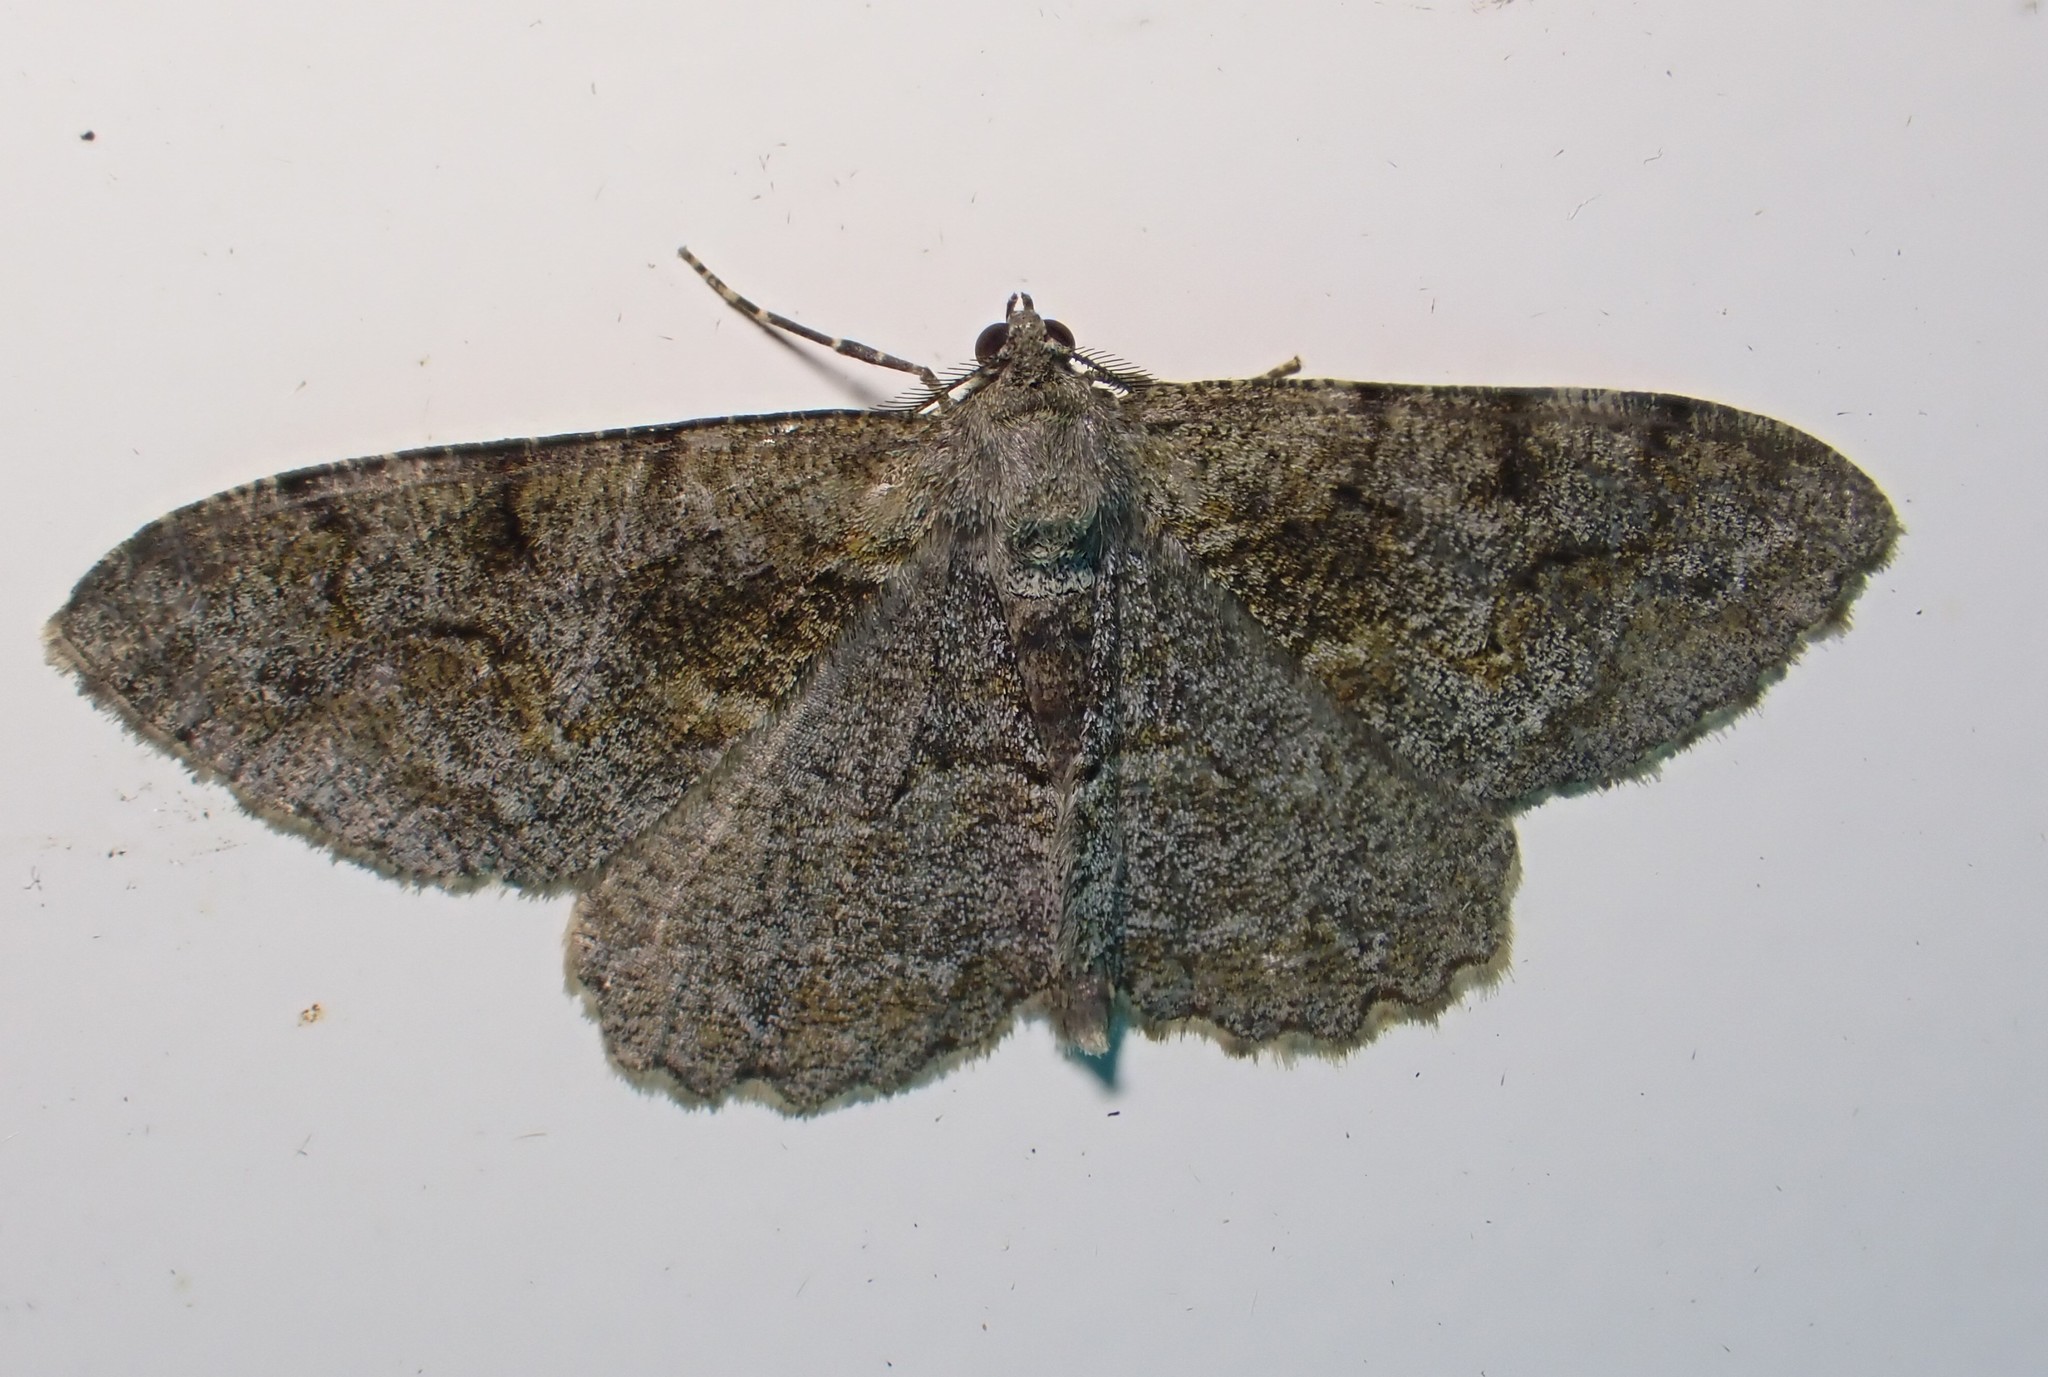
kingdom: Animalia
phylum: Arthropoda
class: Insecta
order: Lepidoptera
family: Geometridae
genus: Alcis
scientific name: Alcis repandata
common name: Mottled beauty
